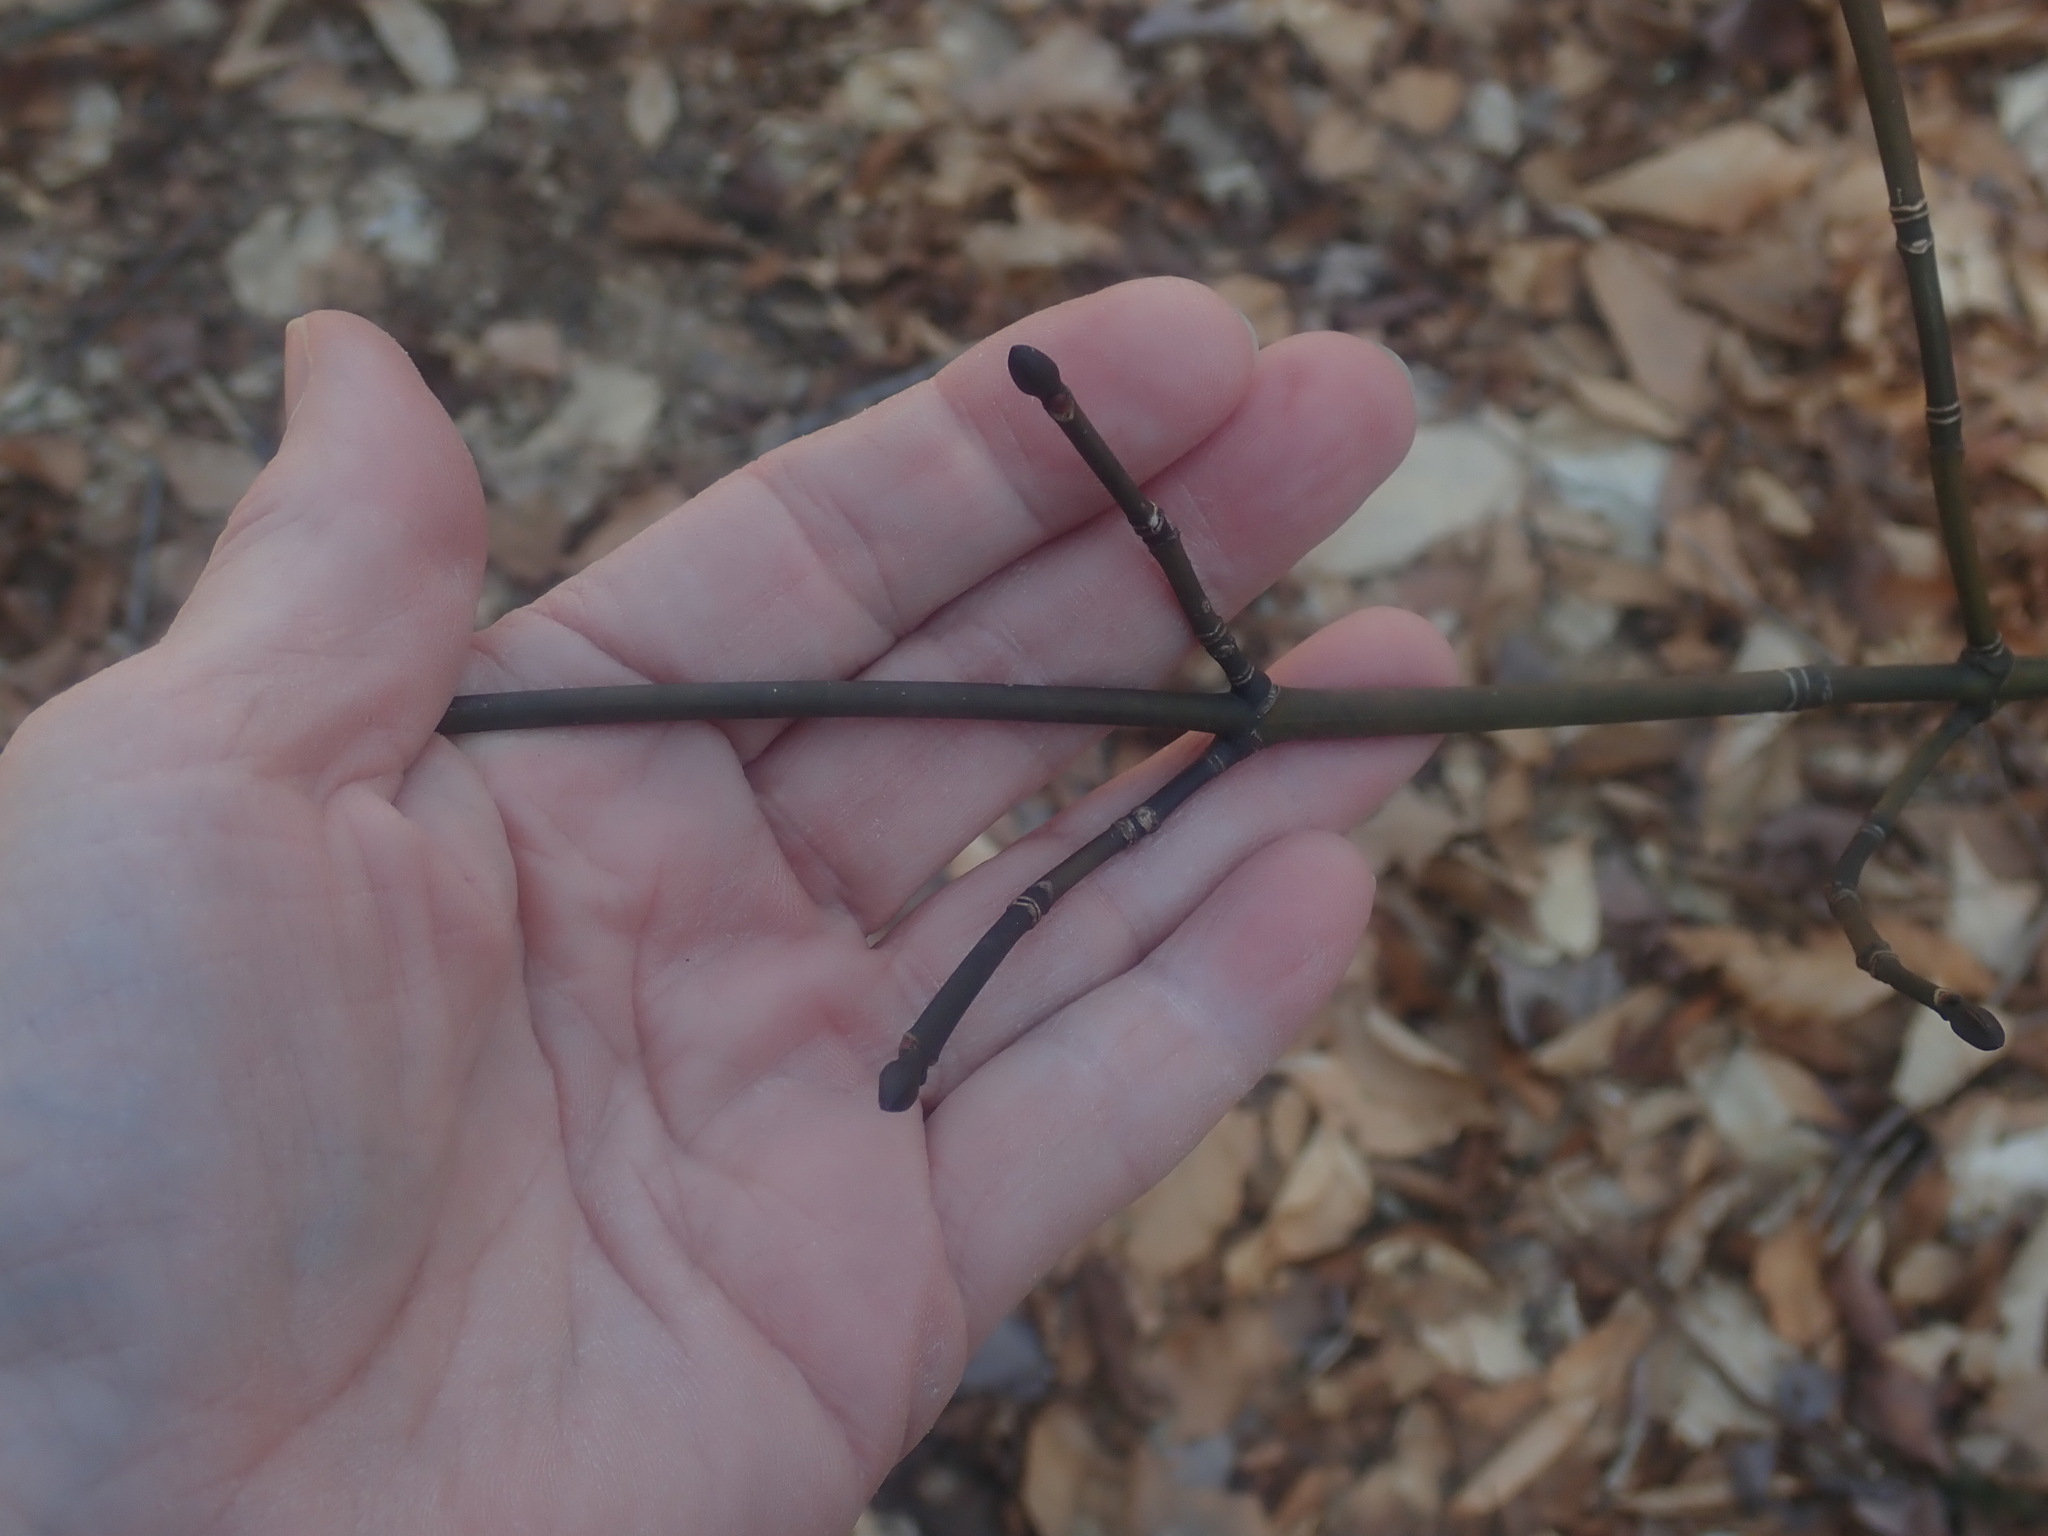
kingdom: Plantae
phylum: Tracheophyta
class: Magnoliopsida
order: Sapindales
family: Sapindaceae
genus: Acer
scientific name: Acer pensylvanicum
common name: Moosewood
